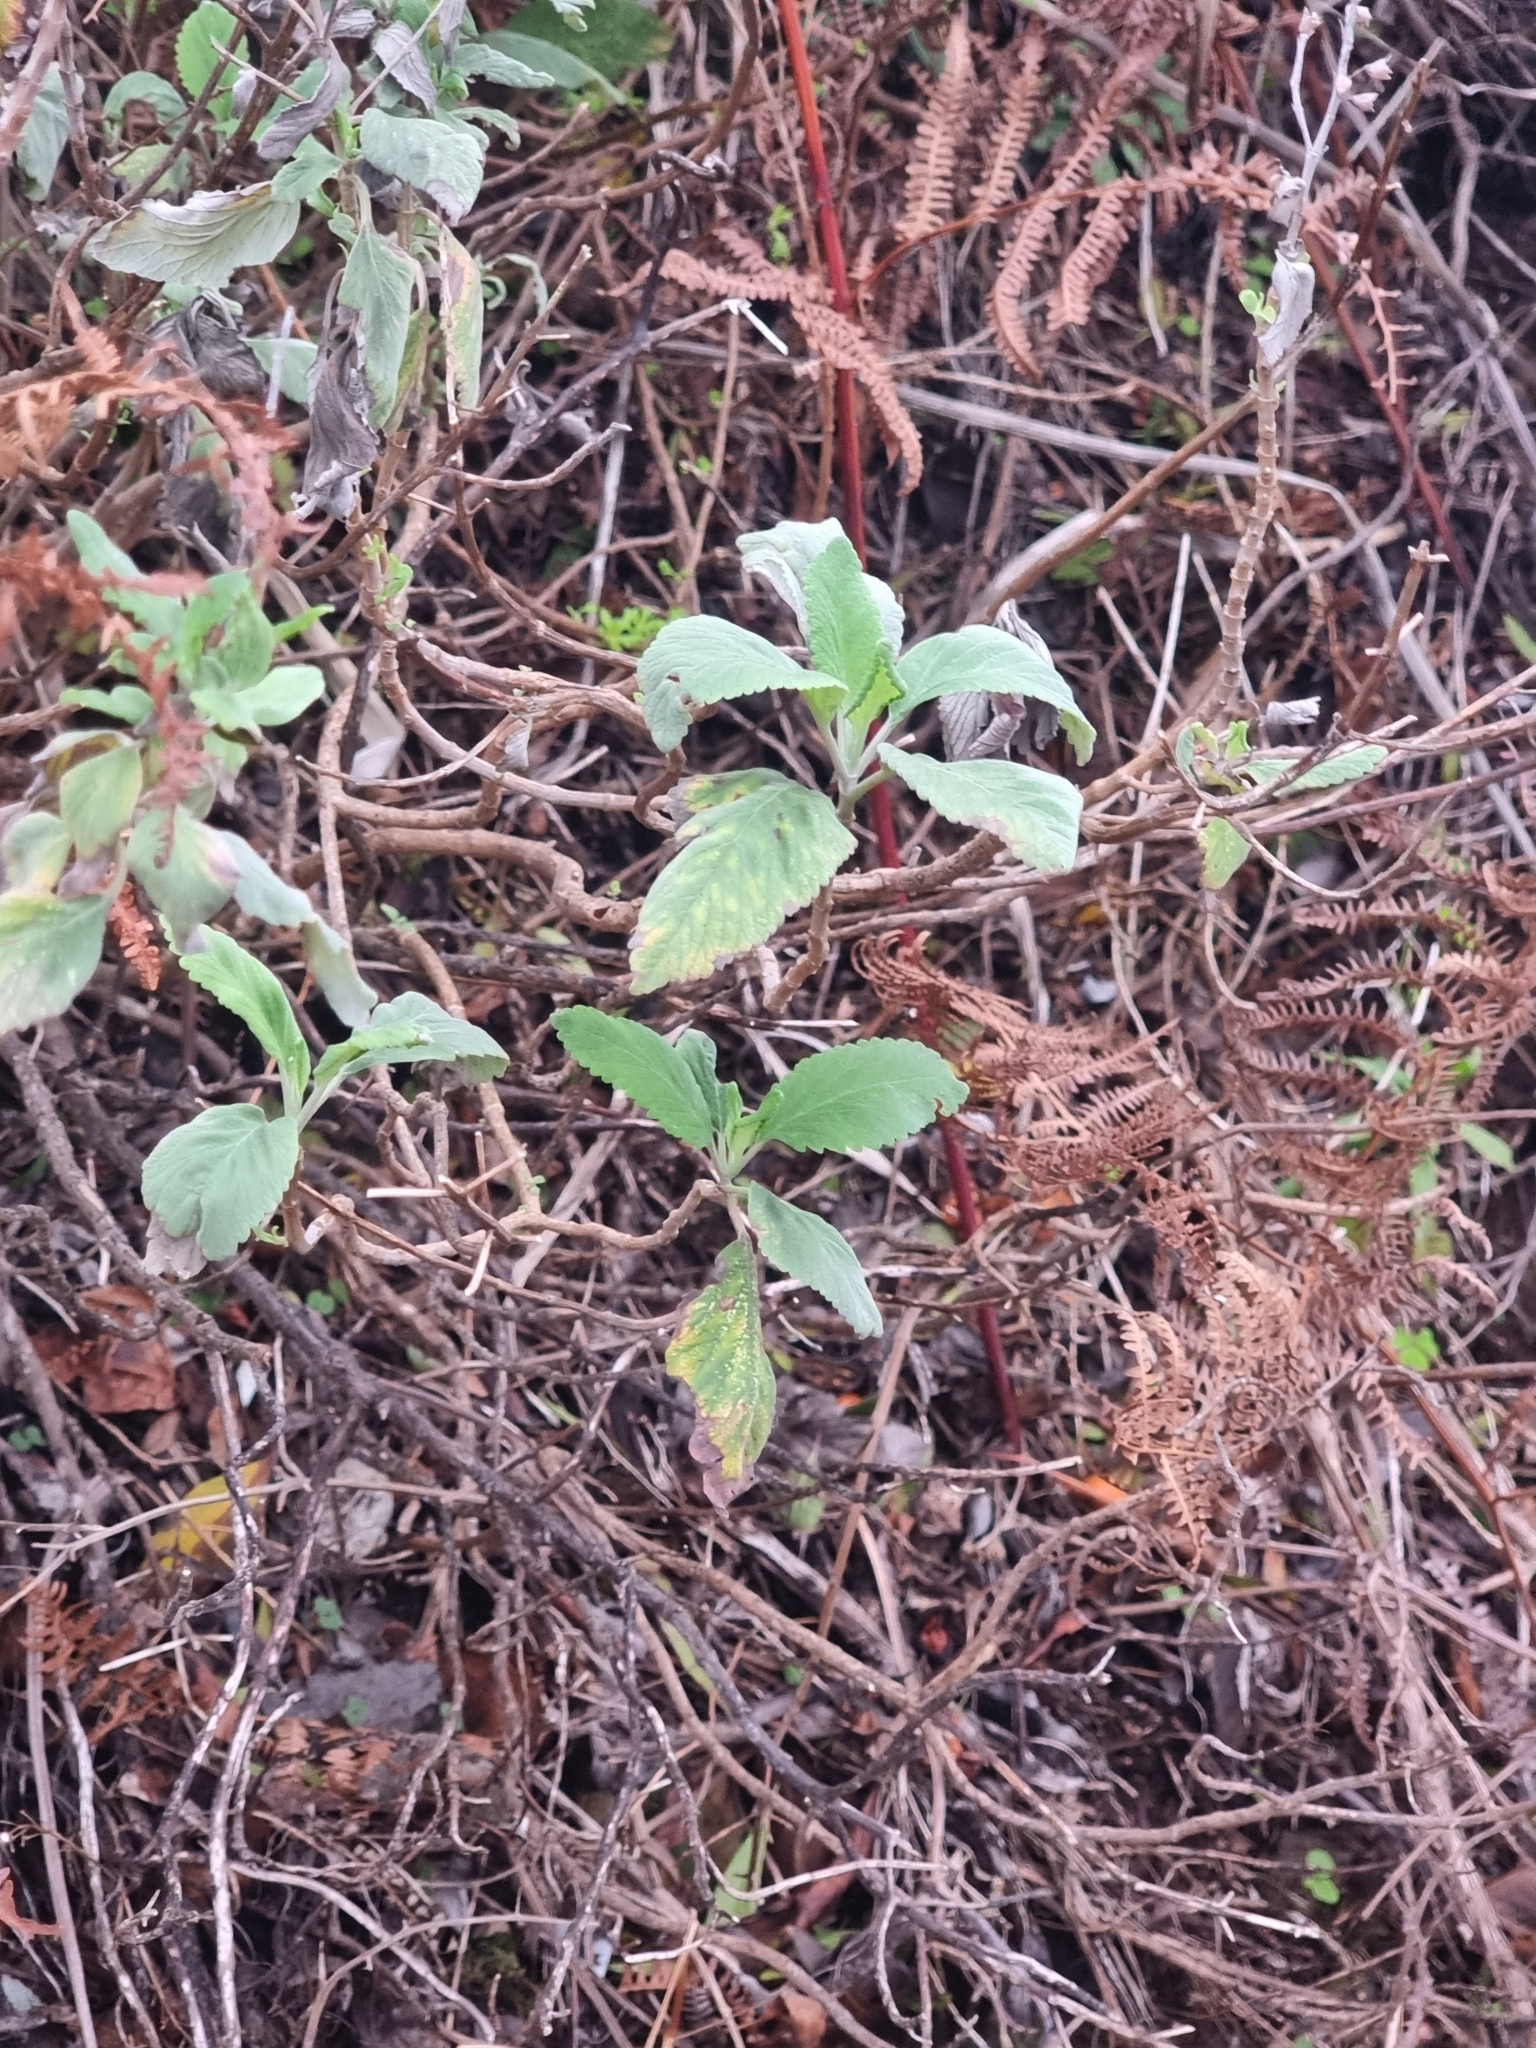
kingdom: Plantae
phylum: Tracheophyta
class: Magnoliopsida
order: Lamiales
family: Lamiaceae
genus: Teucrium
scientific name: Teucrium betonicum
